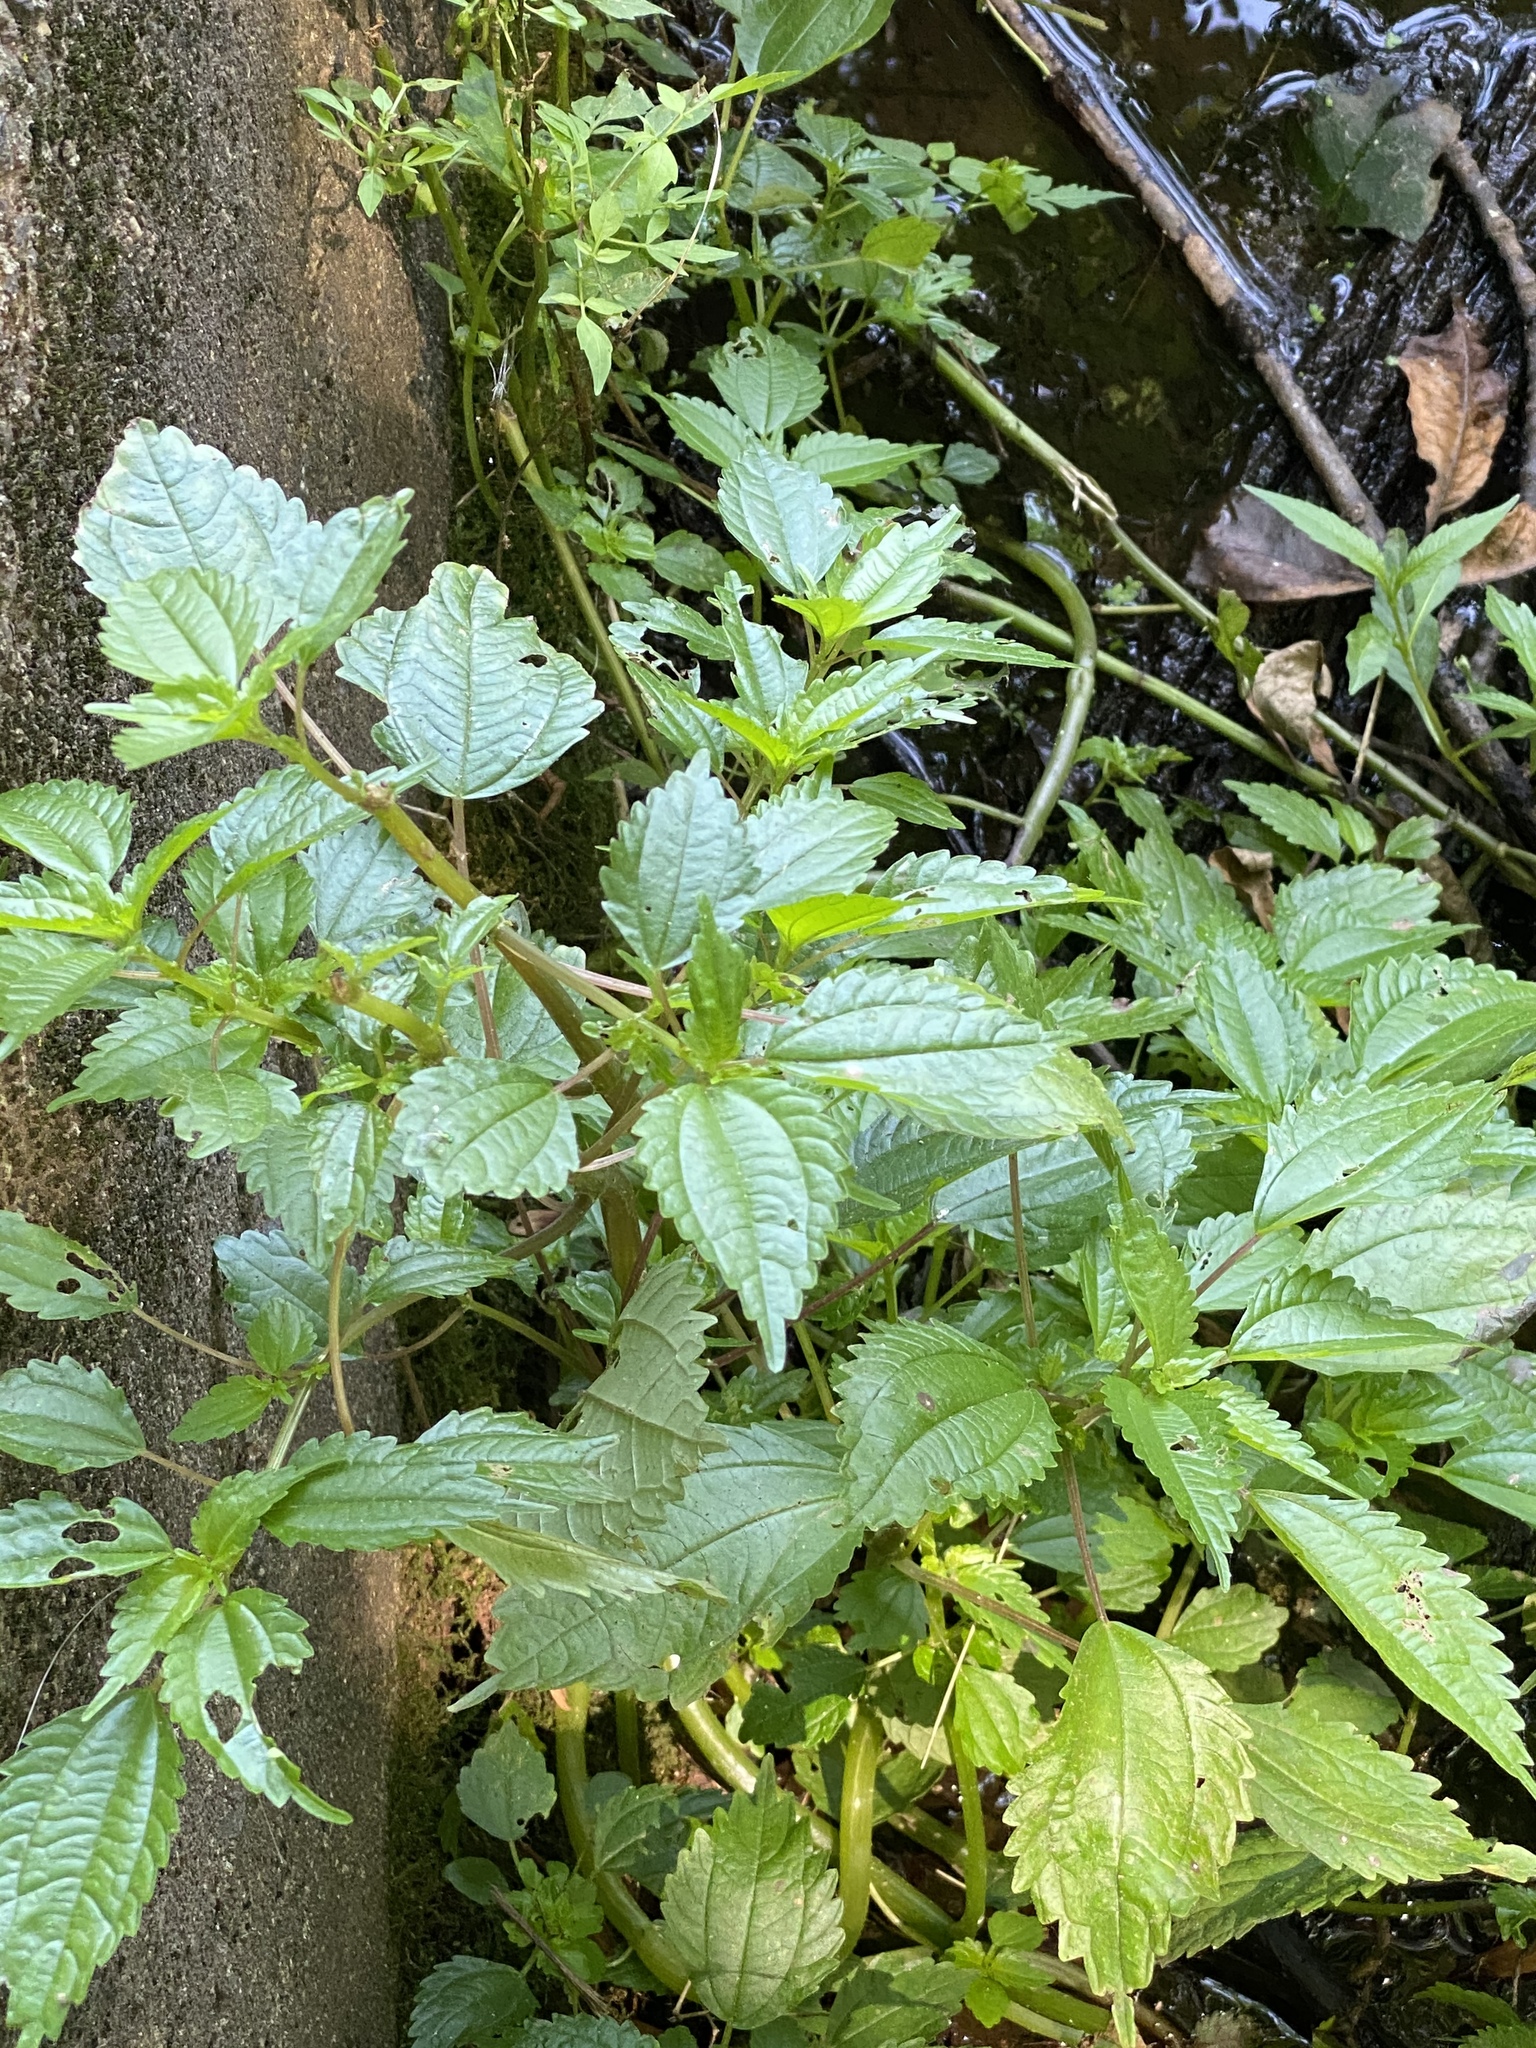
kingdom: Plantae
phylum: Tracheophyta
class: Magnoliopsida
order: Rosales
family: Urticaceae
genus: Pilea
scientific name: Pilea pumila
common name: Clearweed
